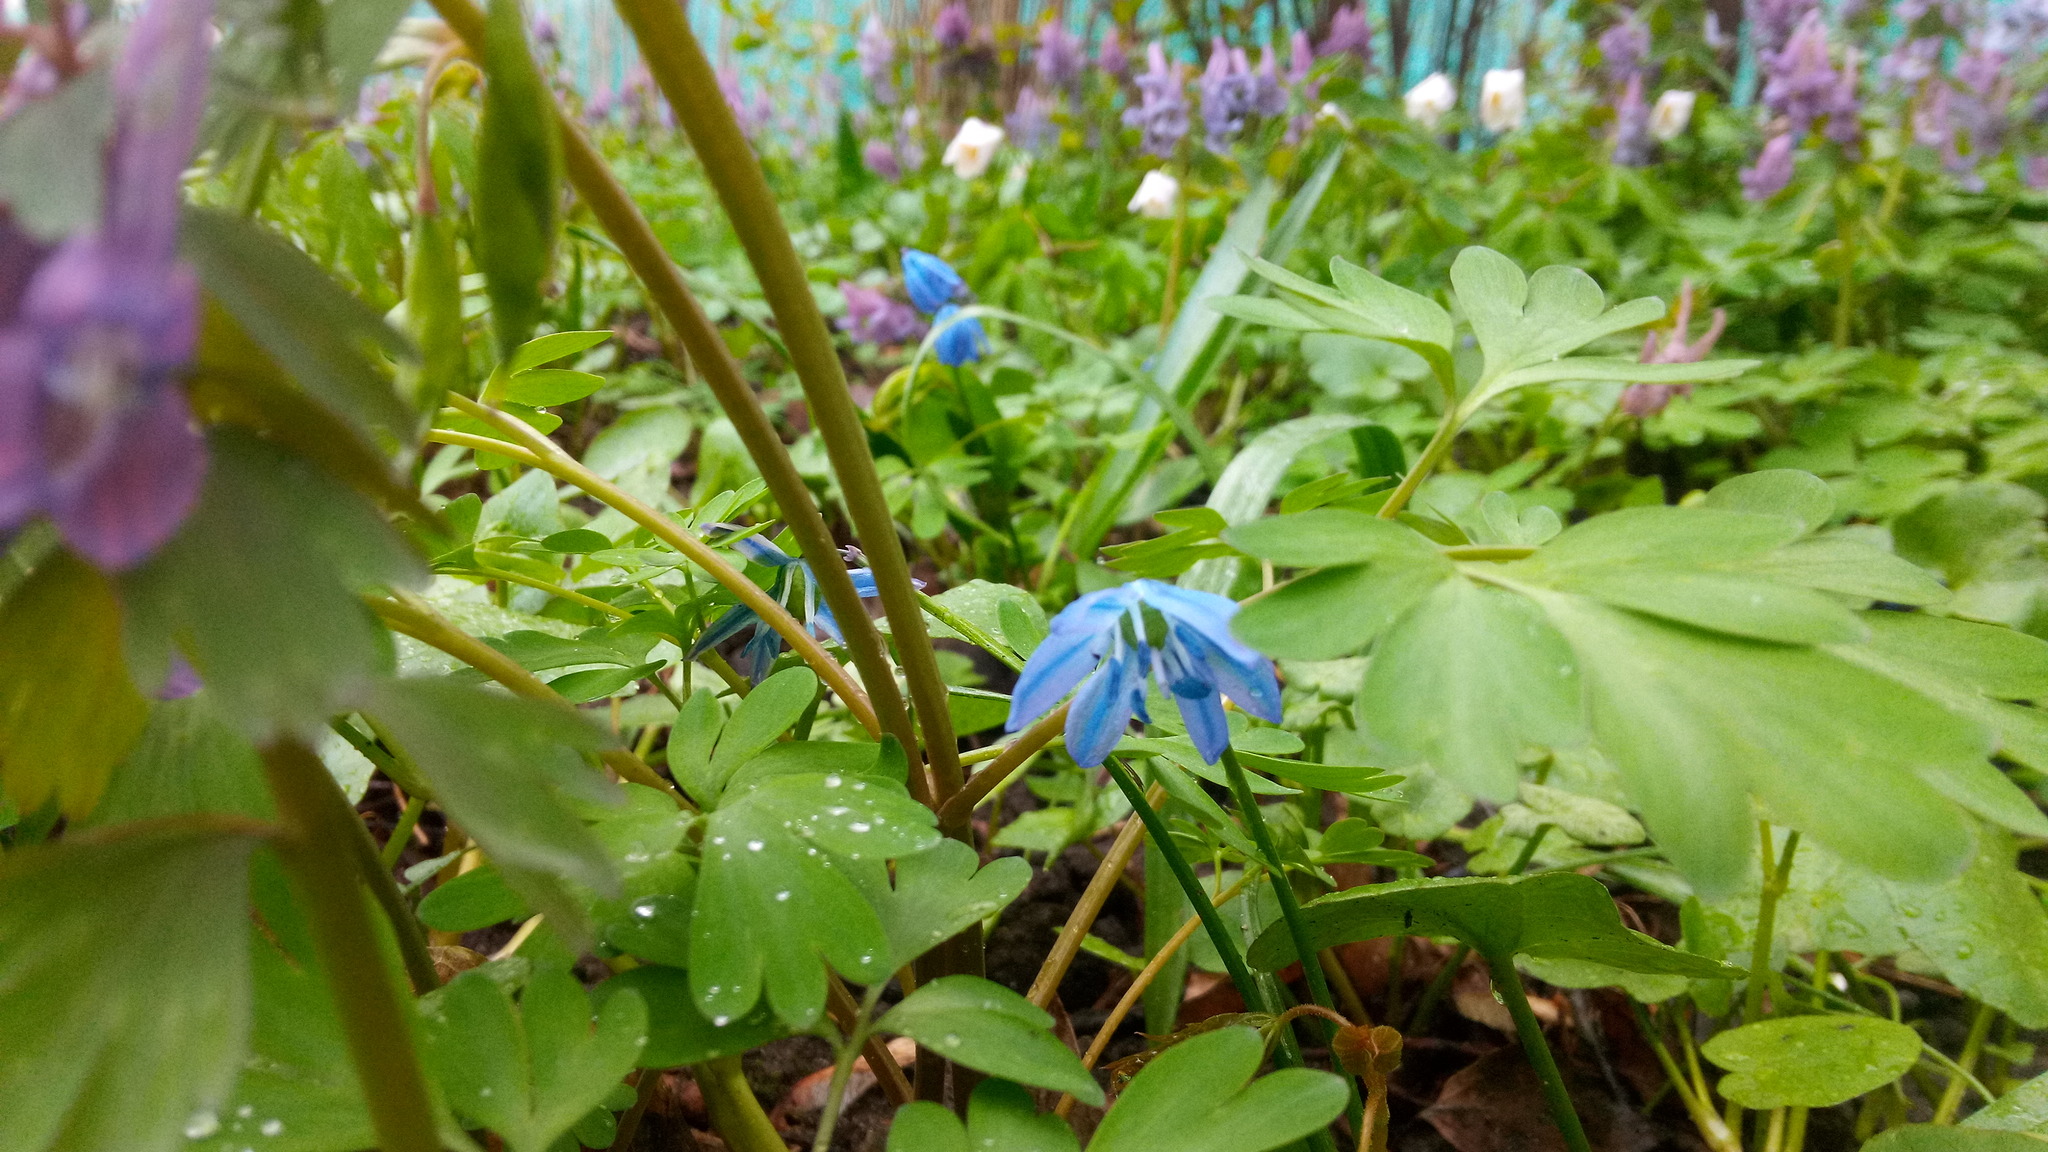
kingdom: Plantae
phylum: Tracheophyta
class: Liliopsida
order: Asparagales
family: Asparagaceae
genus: Scilla
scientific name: Scilla siberica
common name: Siberian squill
